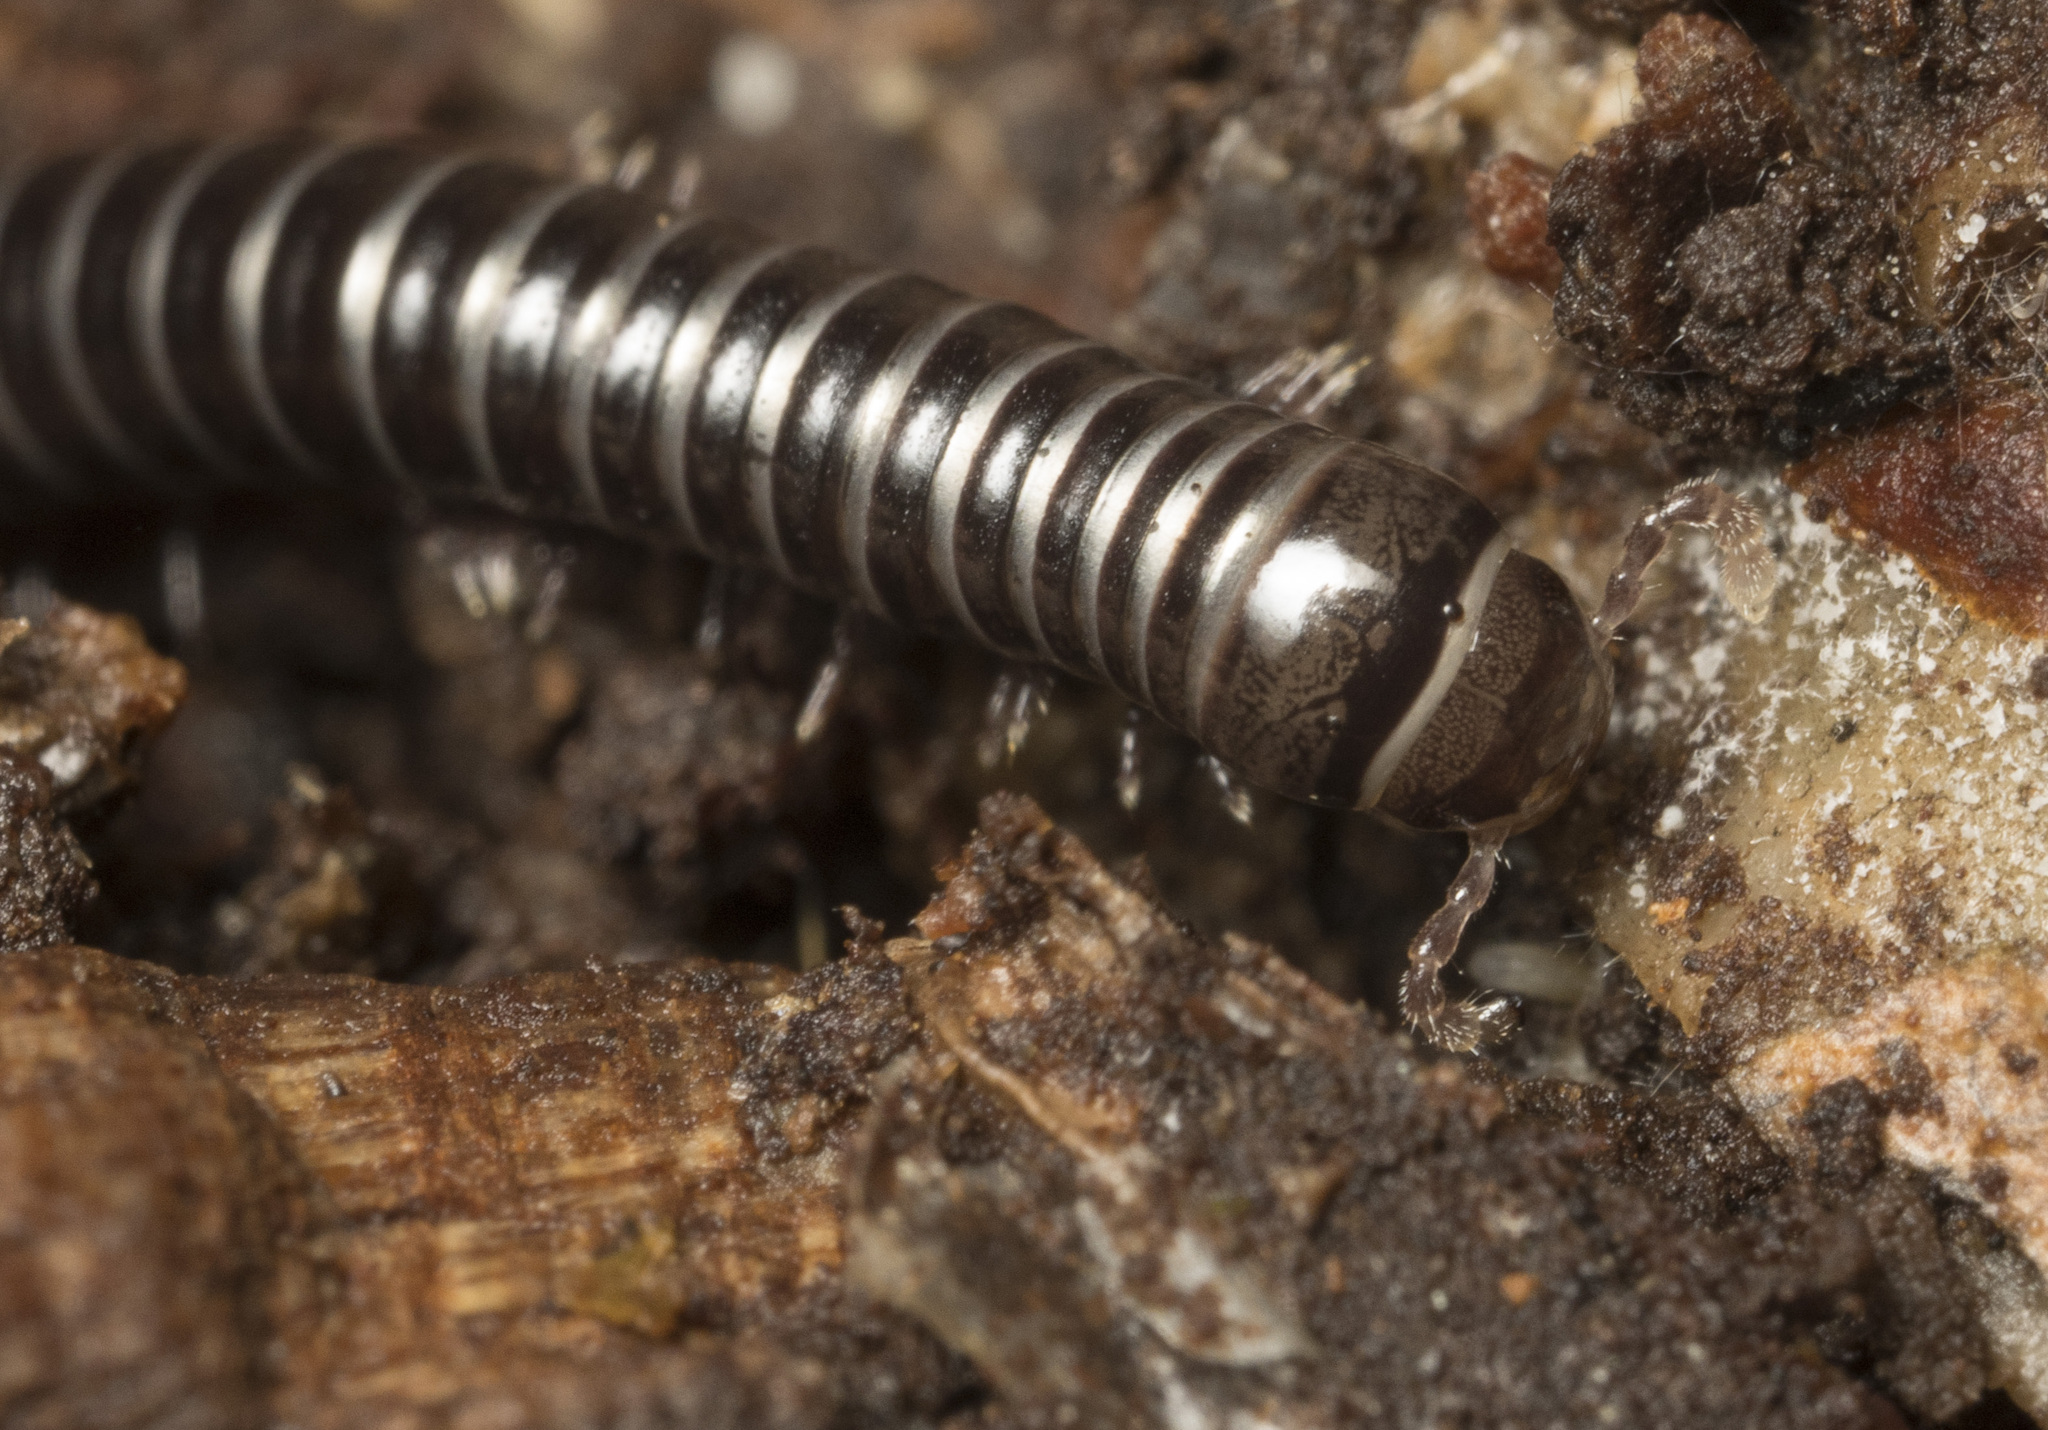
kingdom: Animalia
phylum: Arthropoda
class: Diplopoda
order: Spirostreptida
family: Cambalidae
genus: Zinagon
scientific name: Zinagon chilensis
